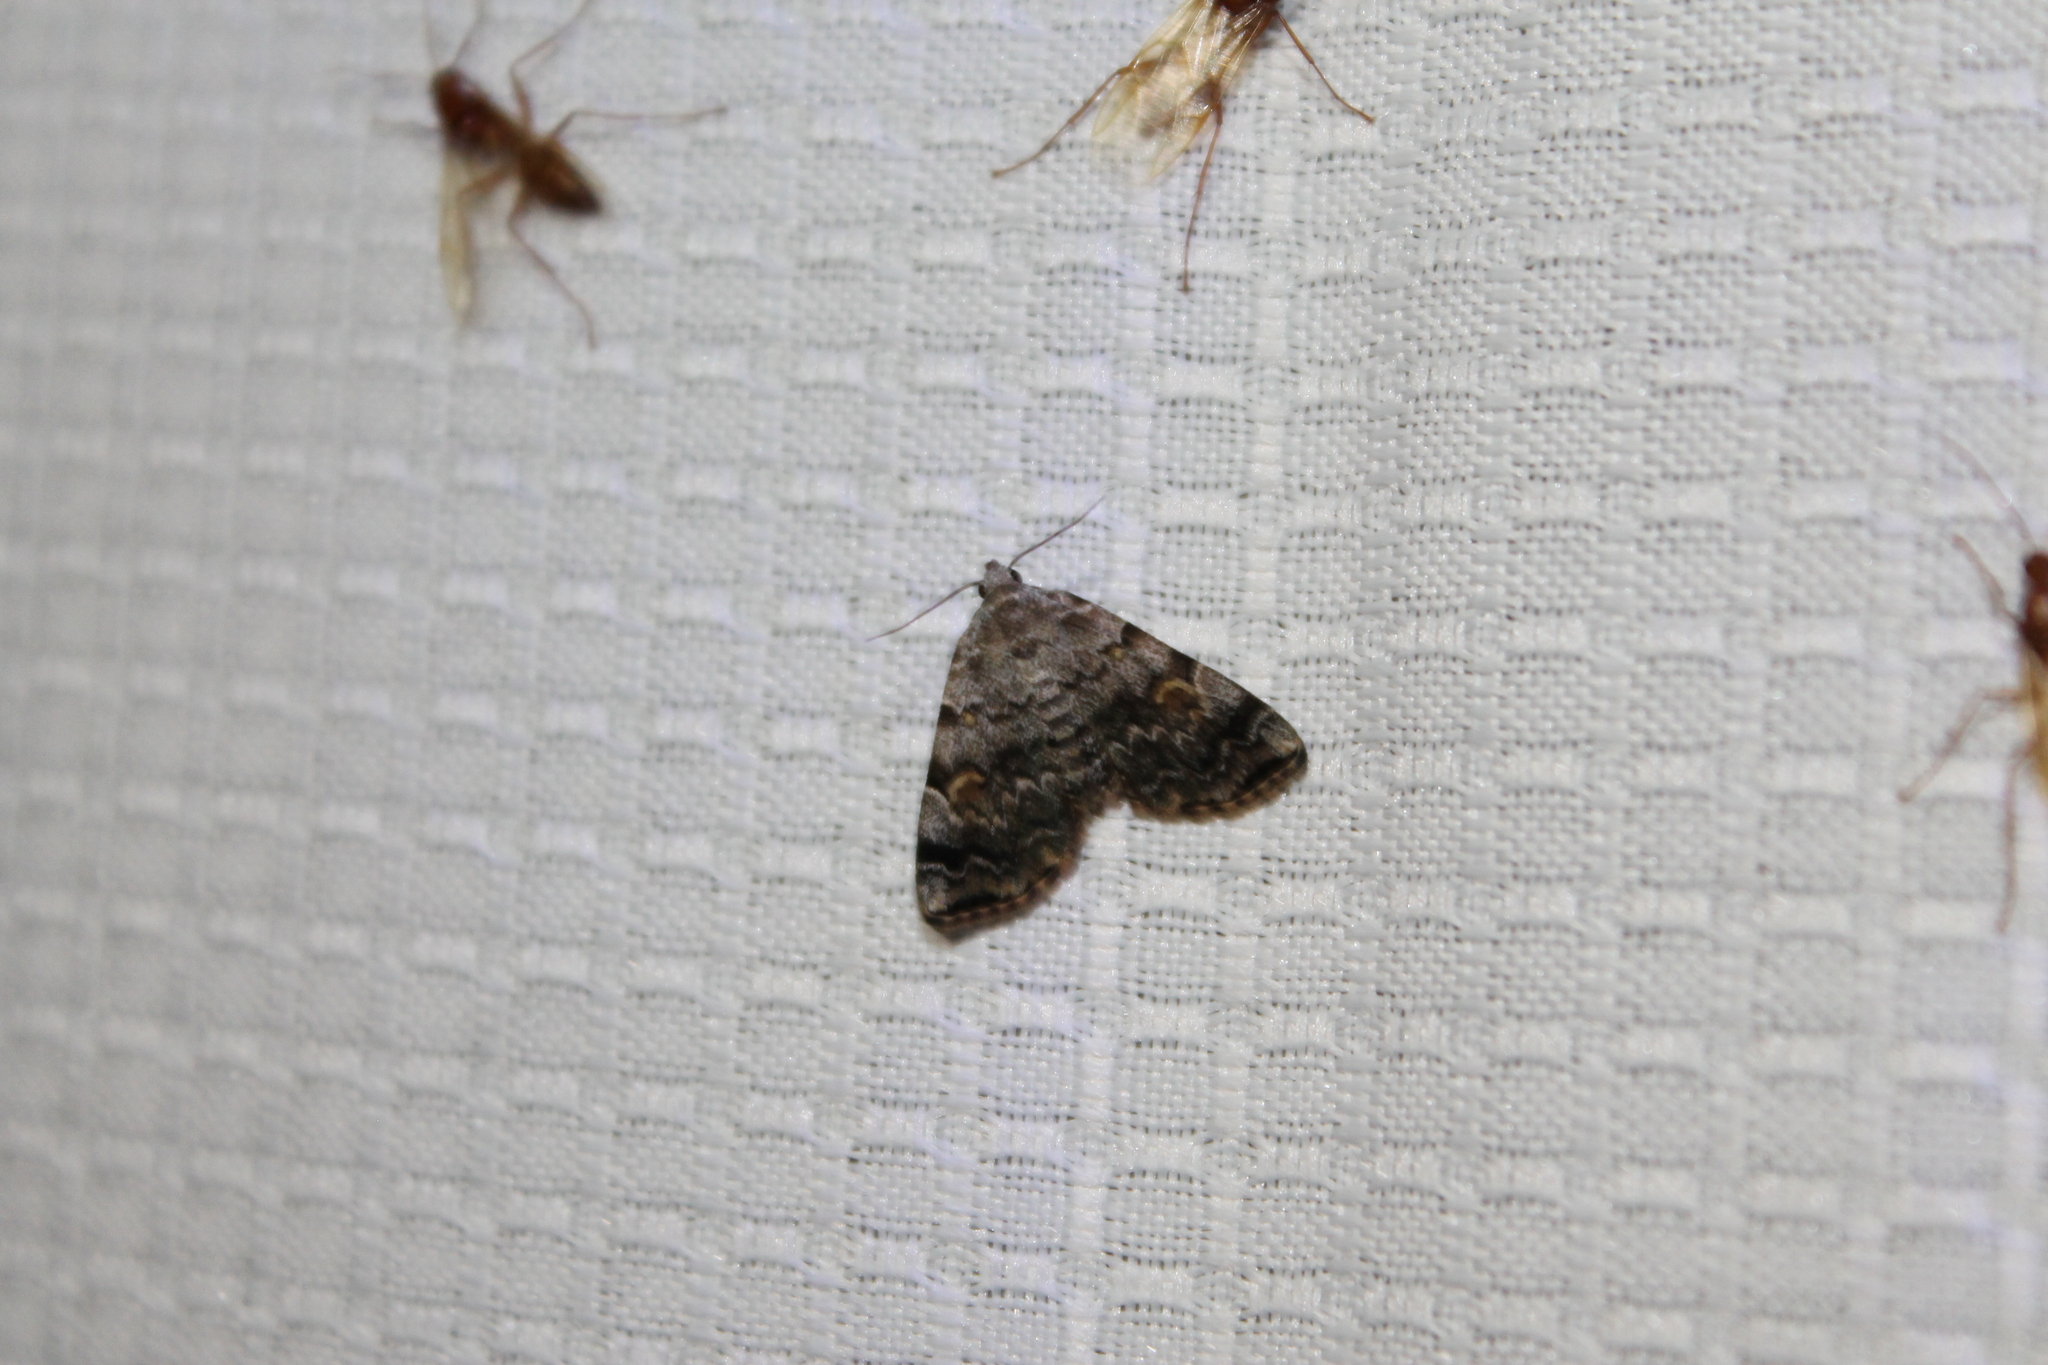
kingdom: Animalia
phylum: Arthropoda
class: Insecta
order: Lepidoptera
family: Erebidae
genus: Idia
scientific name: Idia americalis
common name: American idia moth
